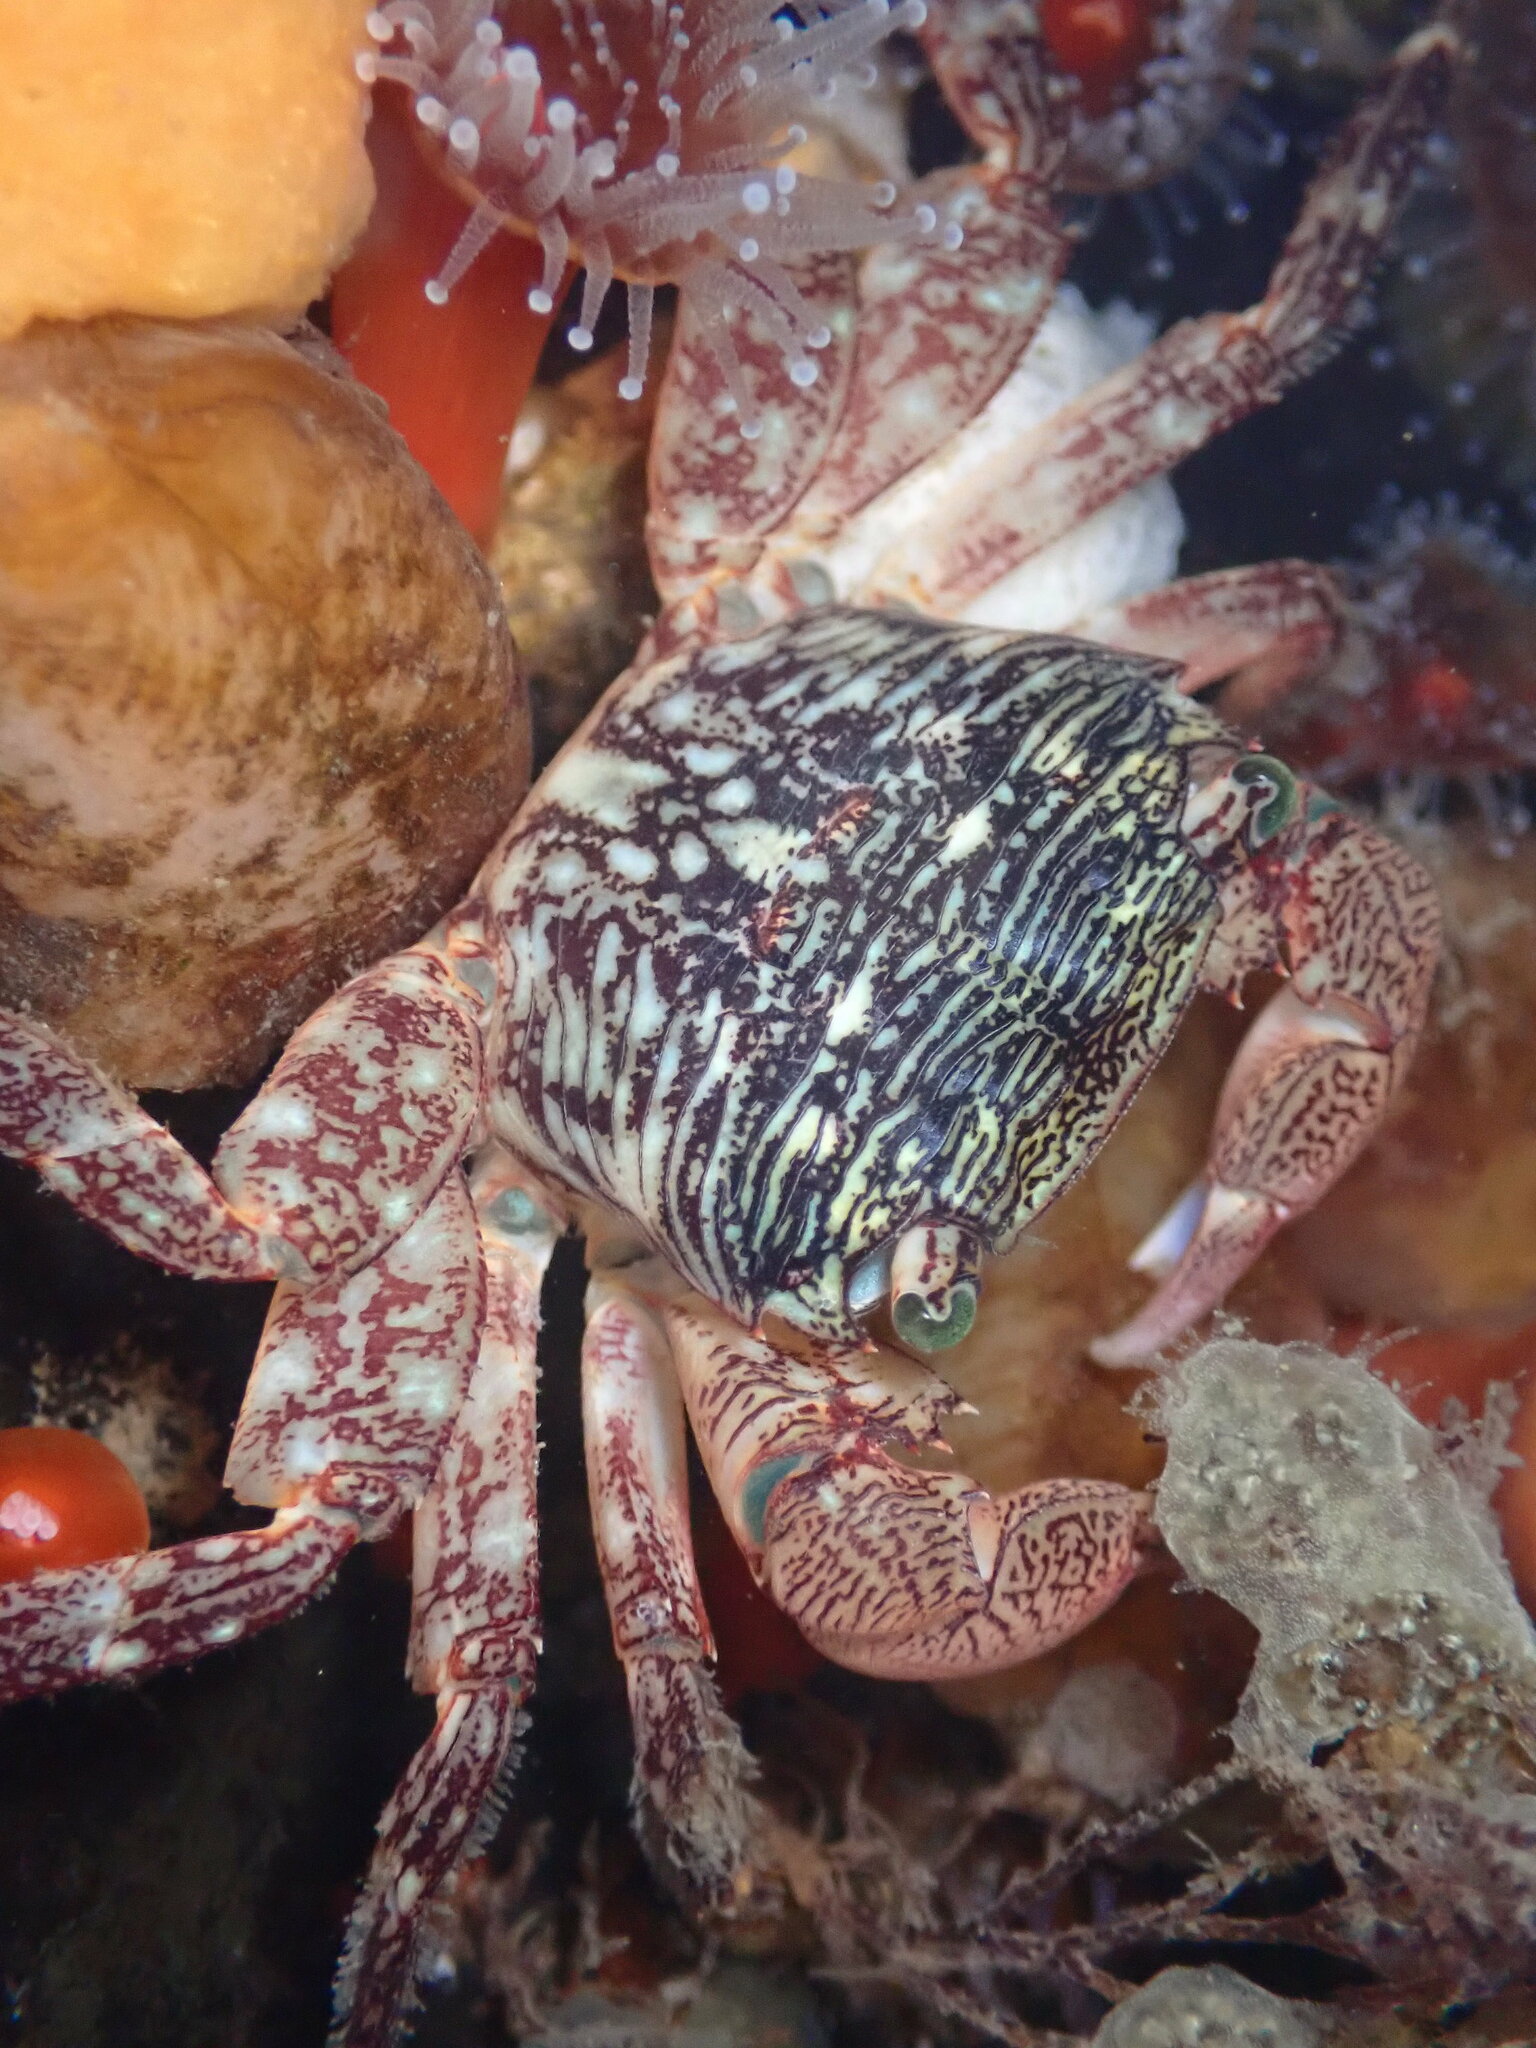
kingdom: Animalia
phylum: Arthropoda
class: Malacostraca
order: Decapoda
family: Grapsidae
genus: Pachygrapsus
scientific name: Pachygrapsus crassipes
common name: Striped shore crab
